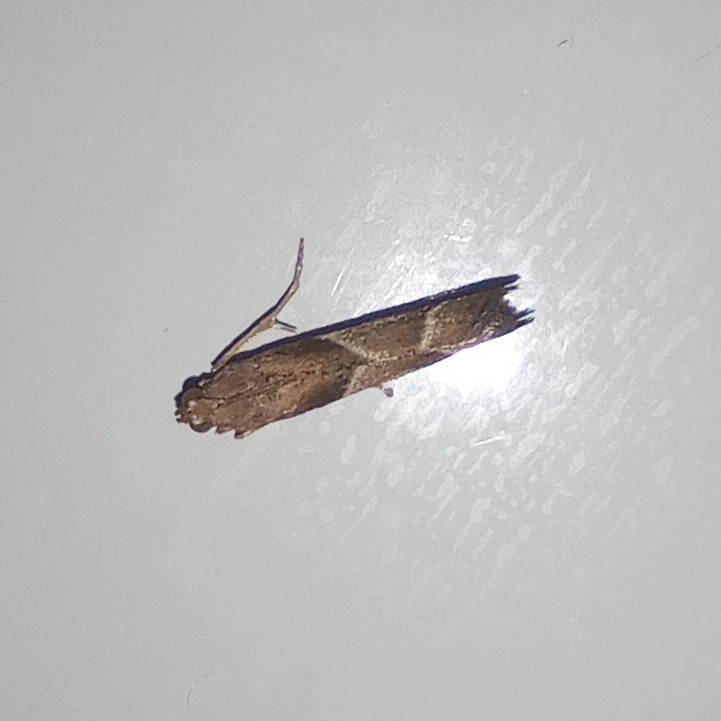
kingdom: Animalia
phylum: Arthropoda
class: Insecta
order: Lepidoptera
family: Pyralidae
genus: Nyctegretis
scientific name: Nyctegretis lineana
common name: Agate knot-horn
